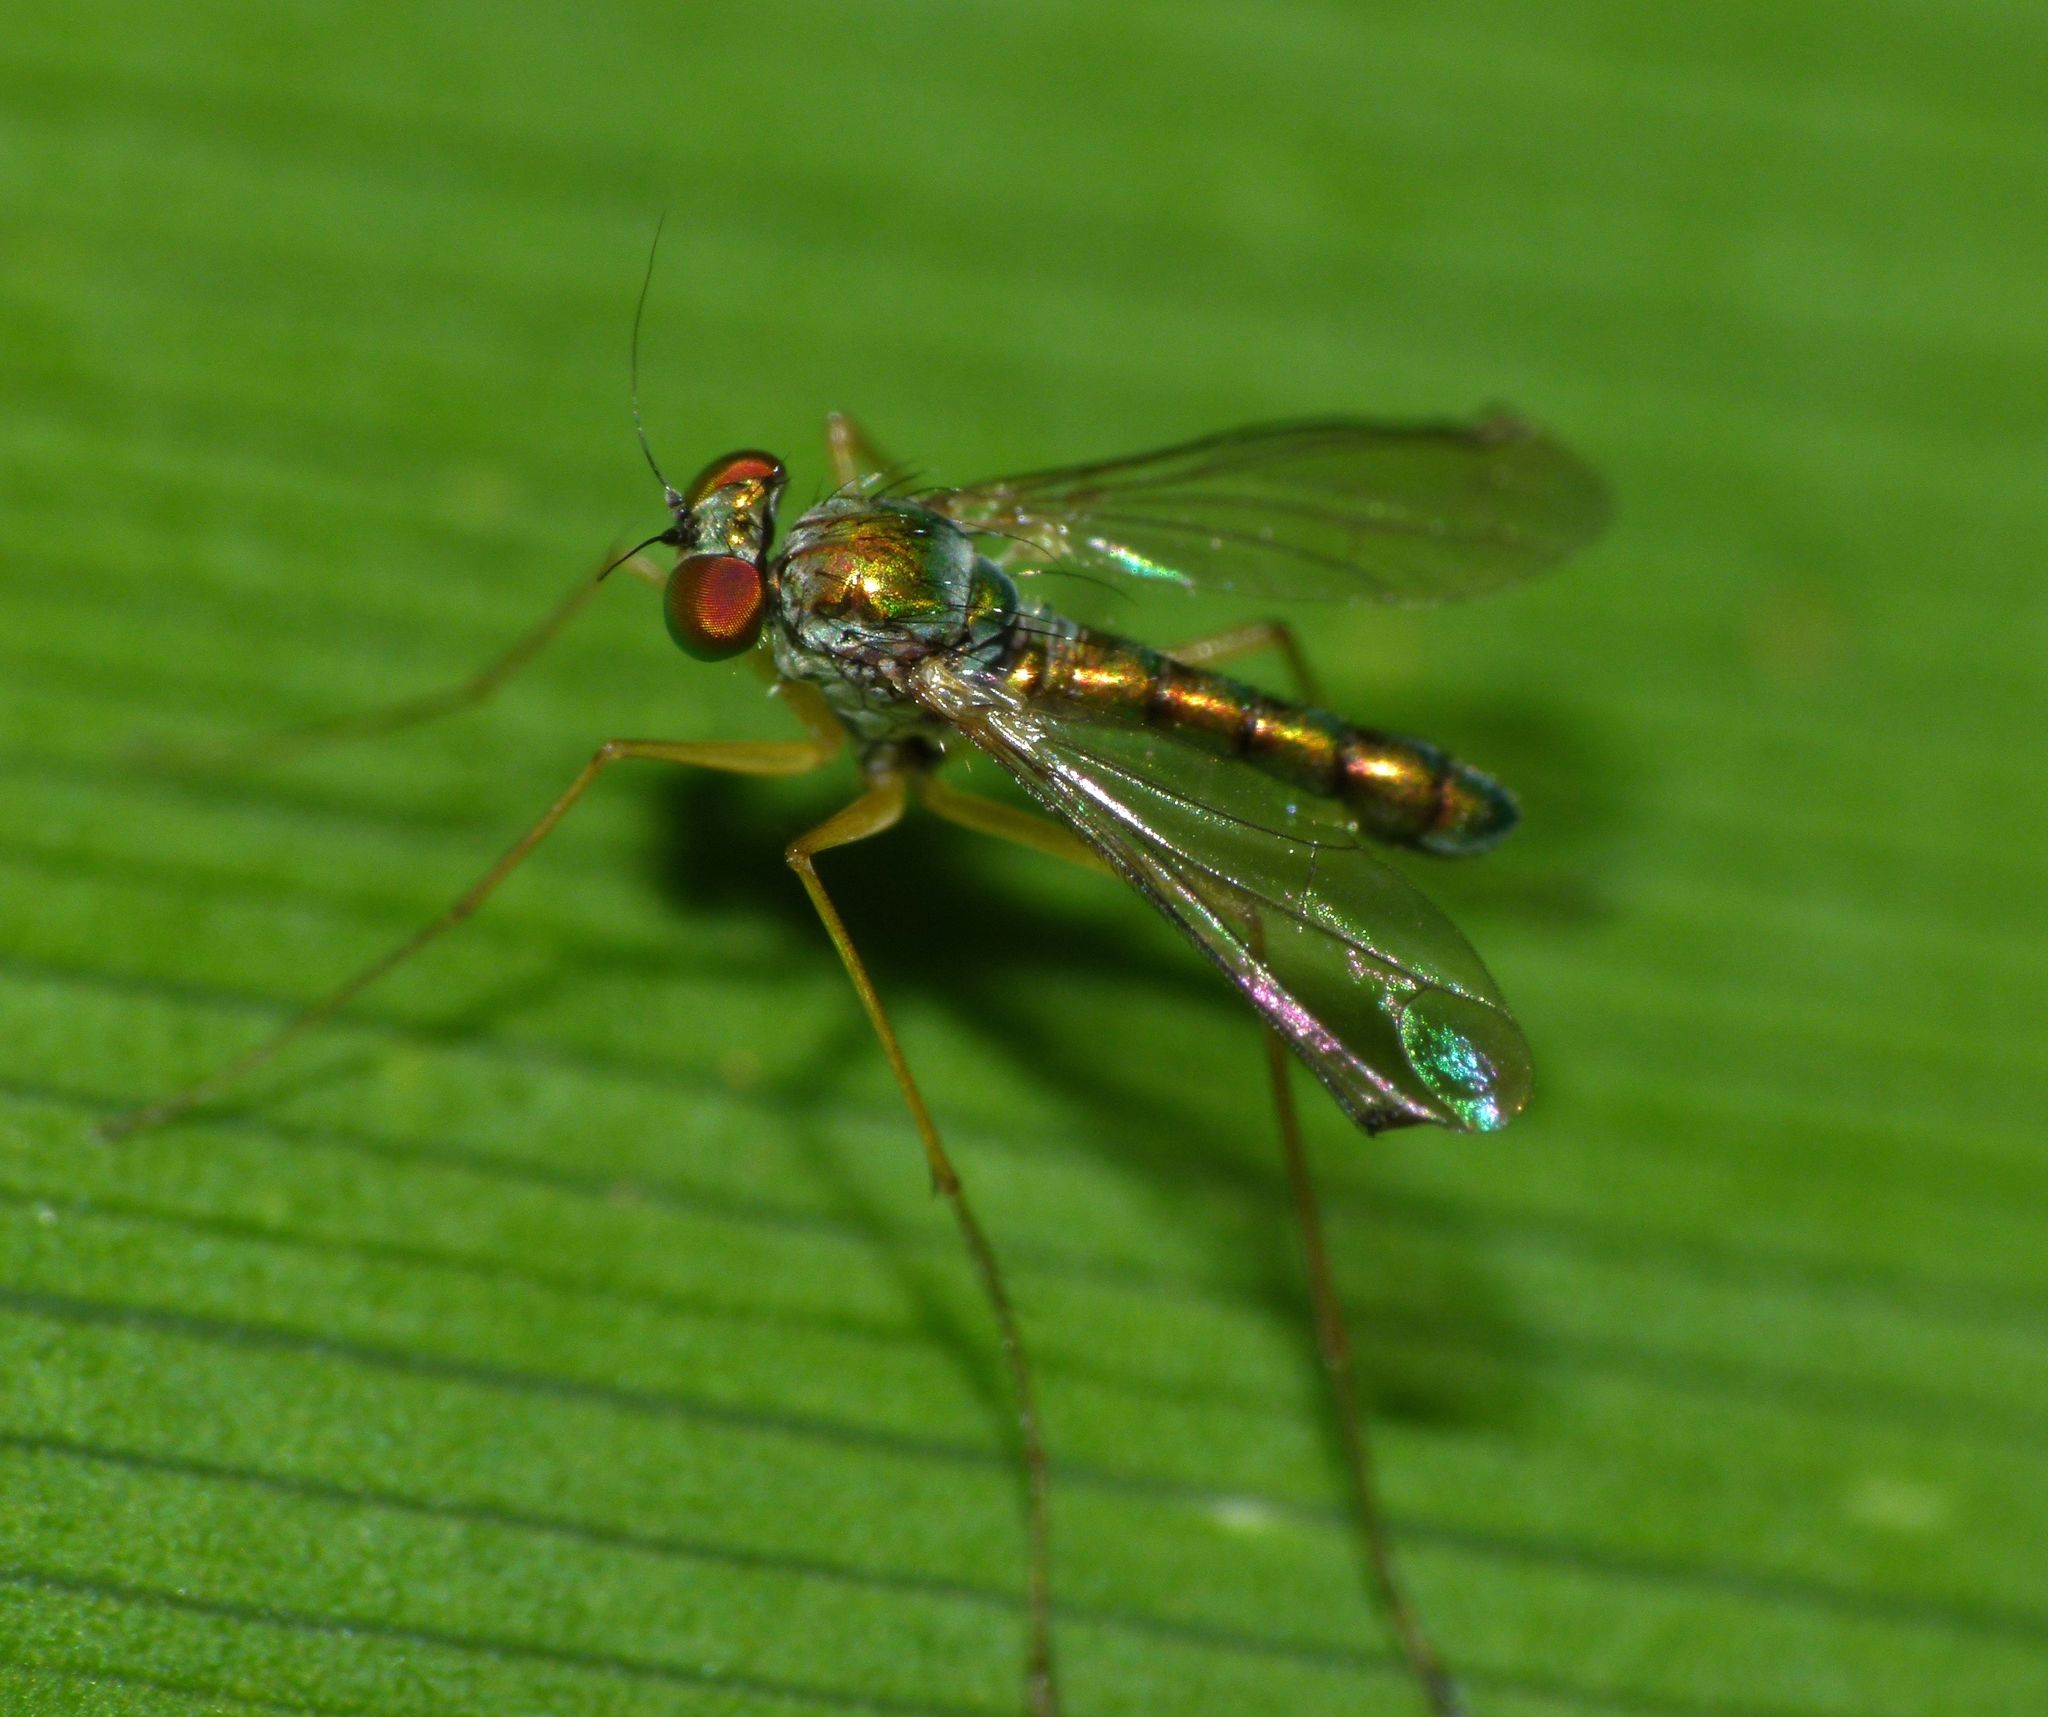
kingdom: Animalia
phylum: Arthropoda
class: Insecta
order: Diptera
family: Dolichopodidae
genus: Parentia
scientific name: Parentia anomalicosta
